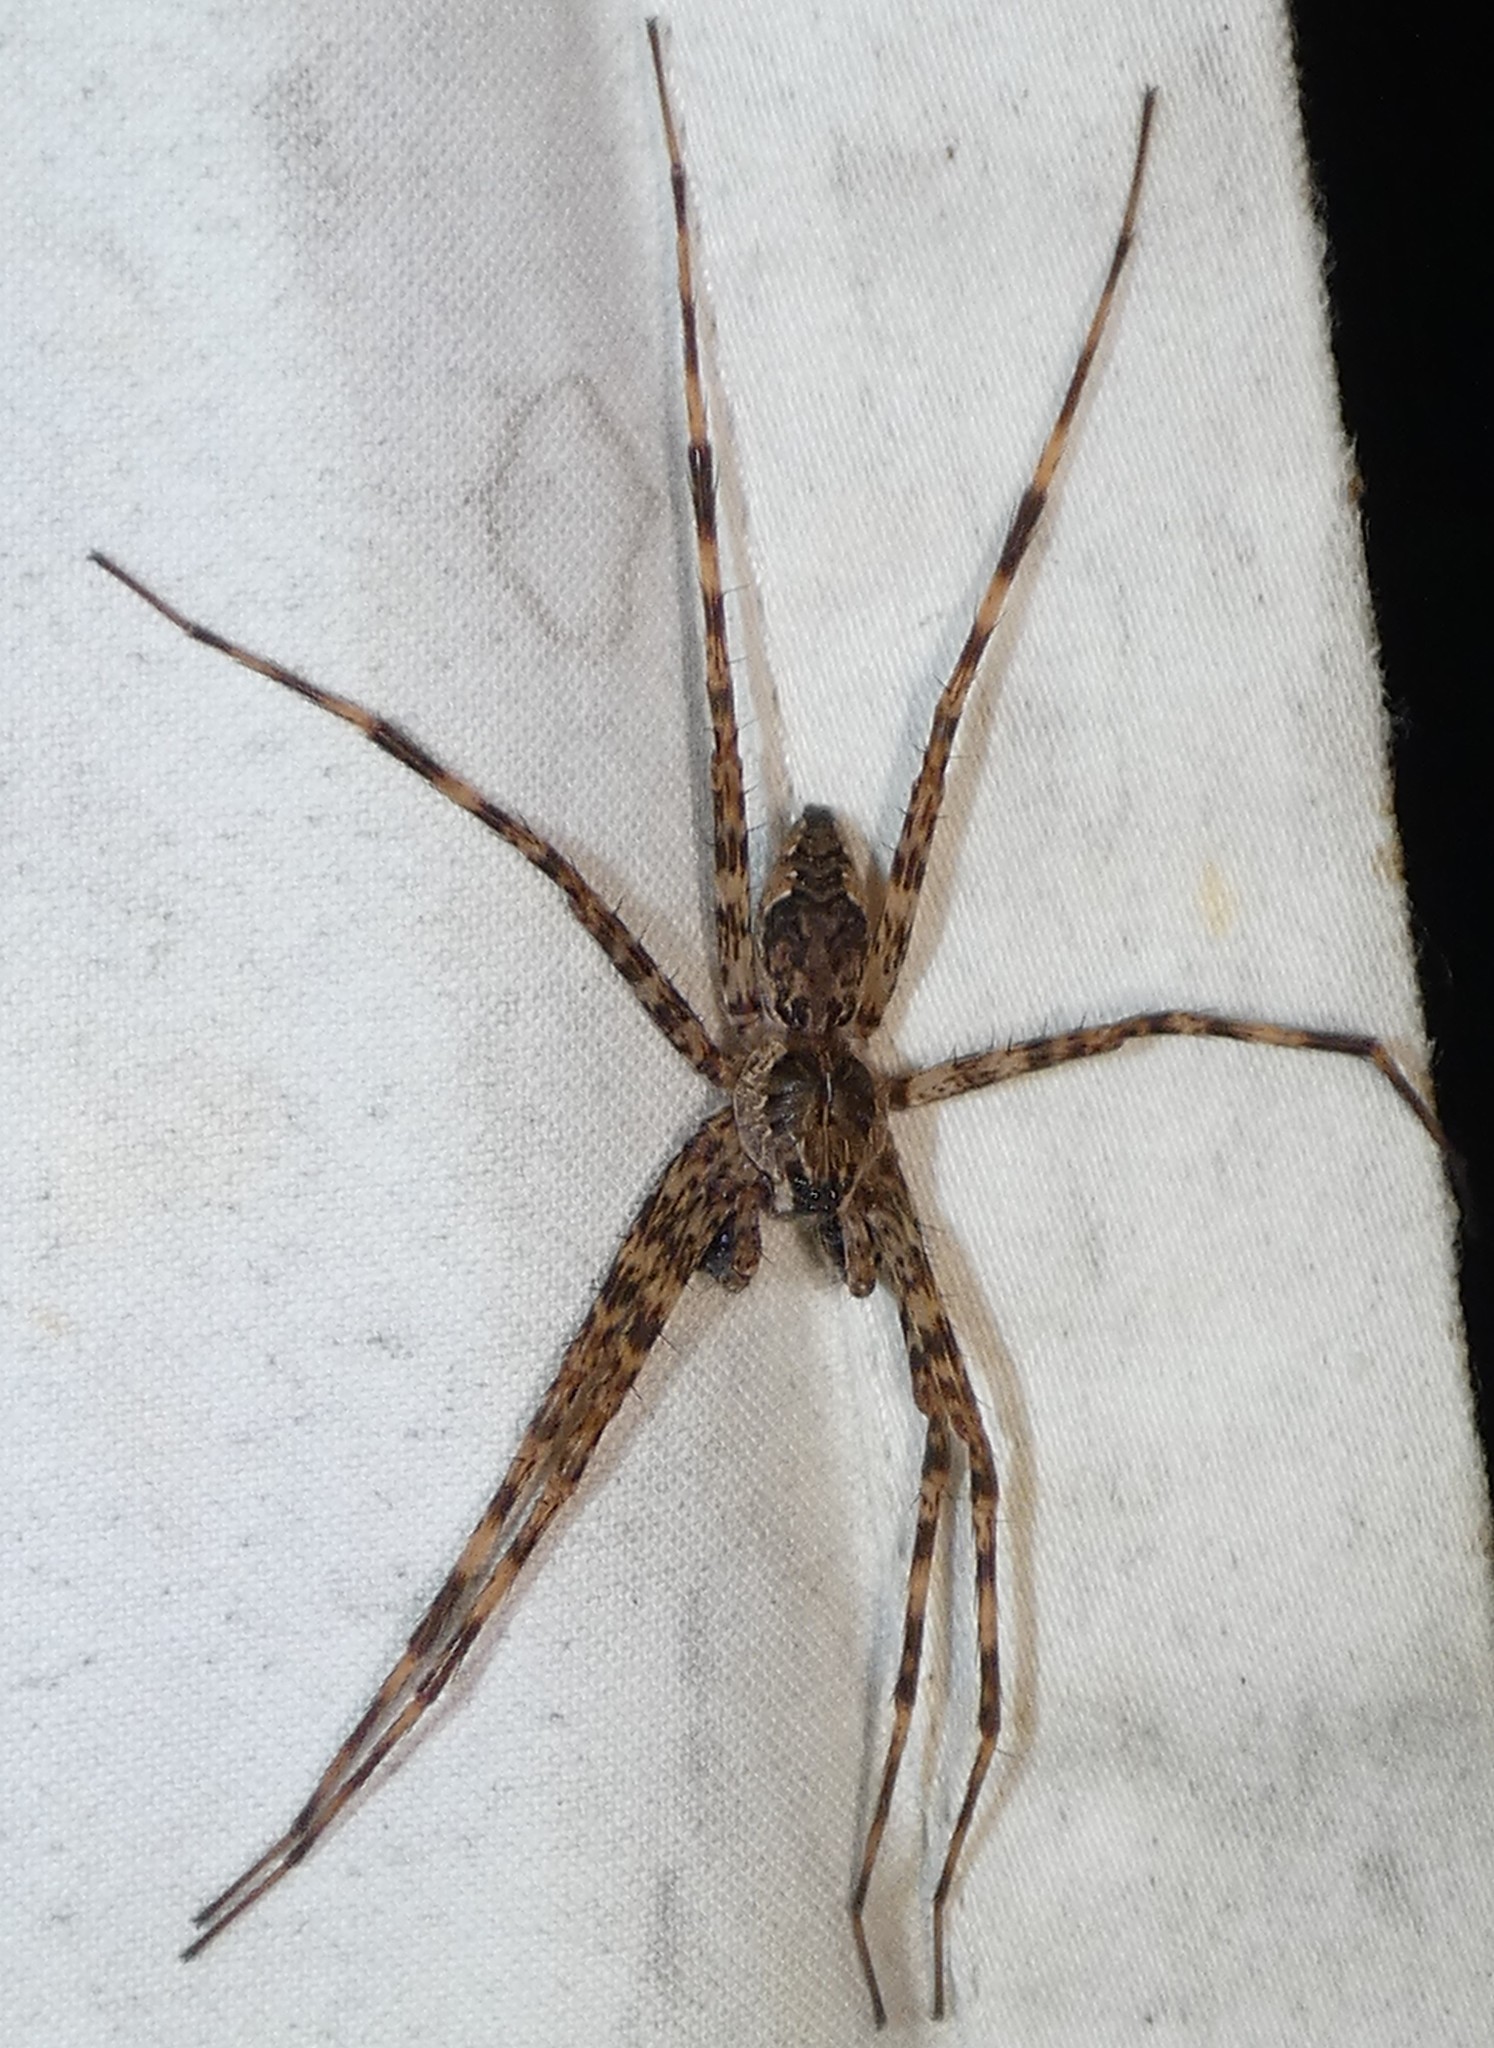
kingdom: Animalia
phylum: Arthropoda
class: Arachnida
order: Araneae
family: Pisauridae
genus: Dolomedes
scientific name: Dolomedes tenebrosus
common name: Dark fishing spider
